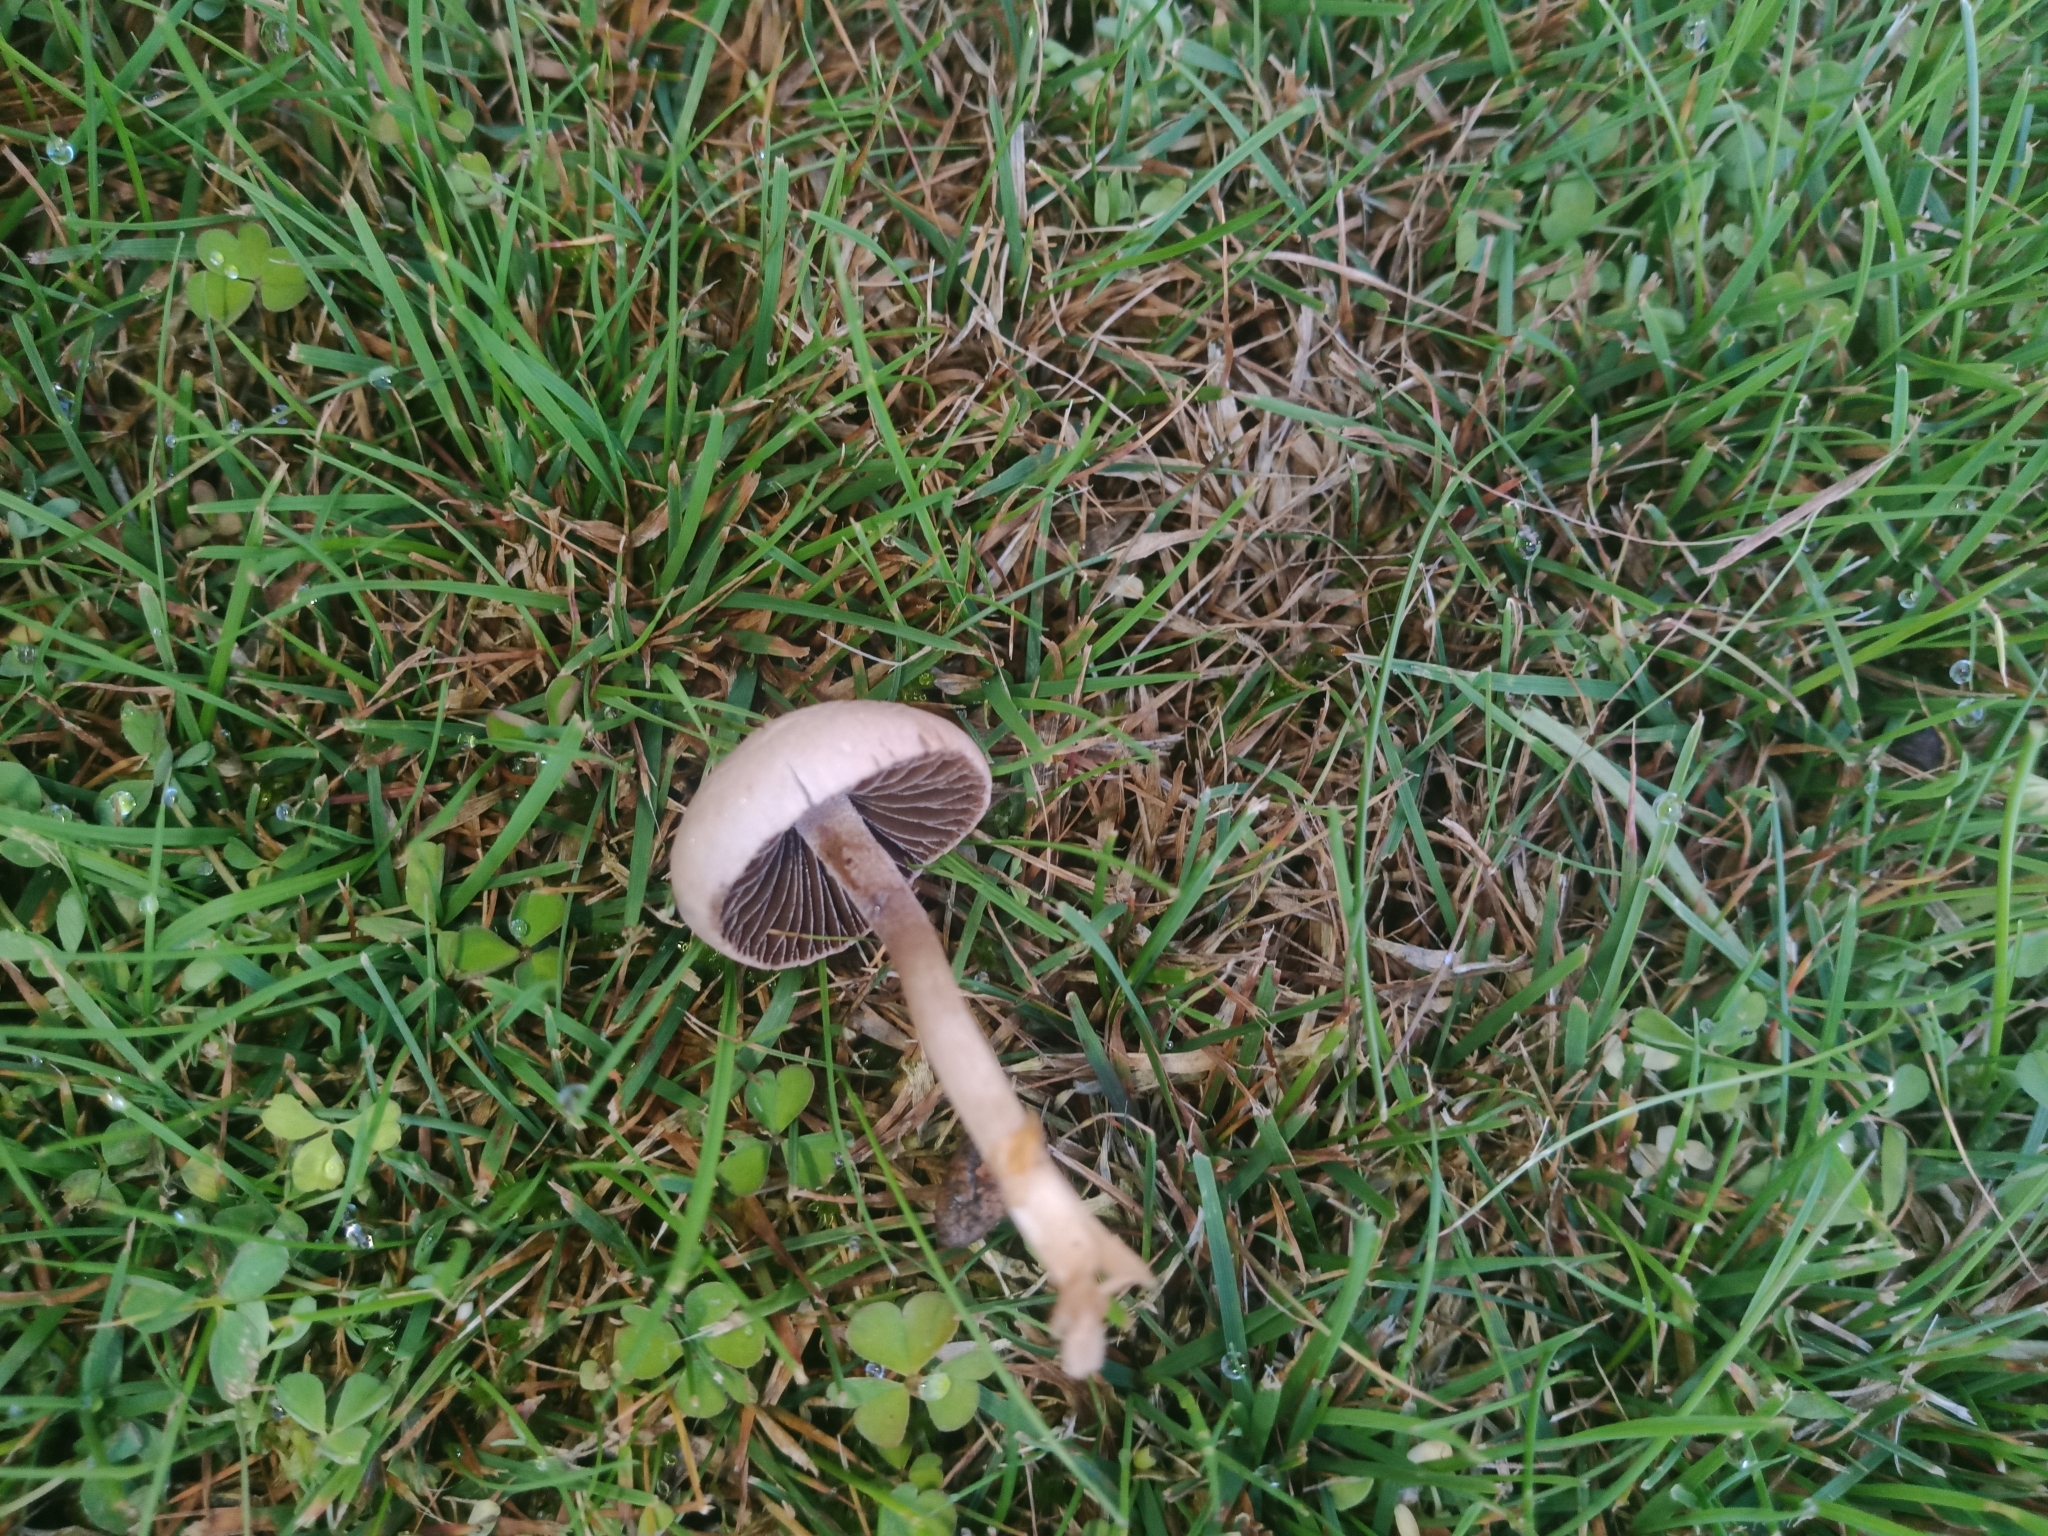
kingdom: Fungi
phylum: Basidiomycota
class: Agaricomycetes
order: Agaricales
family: Bolbitiaceae
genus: Panaeolina
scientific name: Panaeolina foenisecii
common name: Brown hay cap
